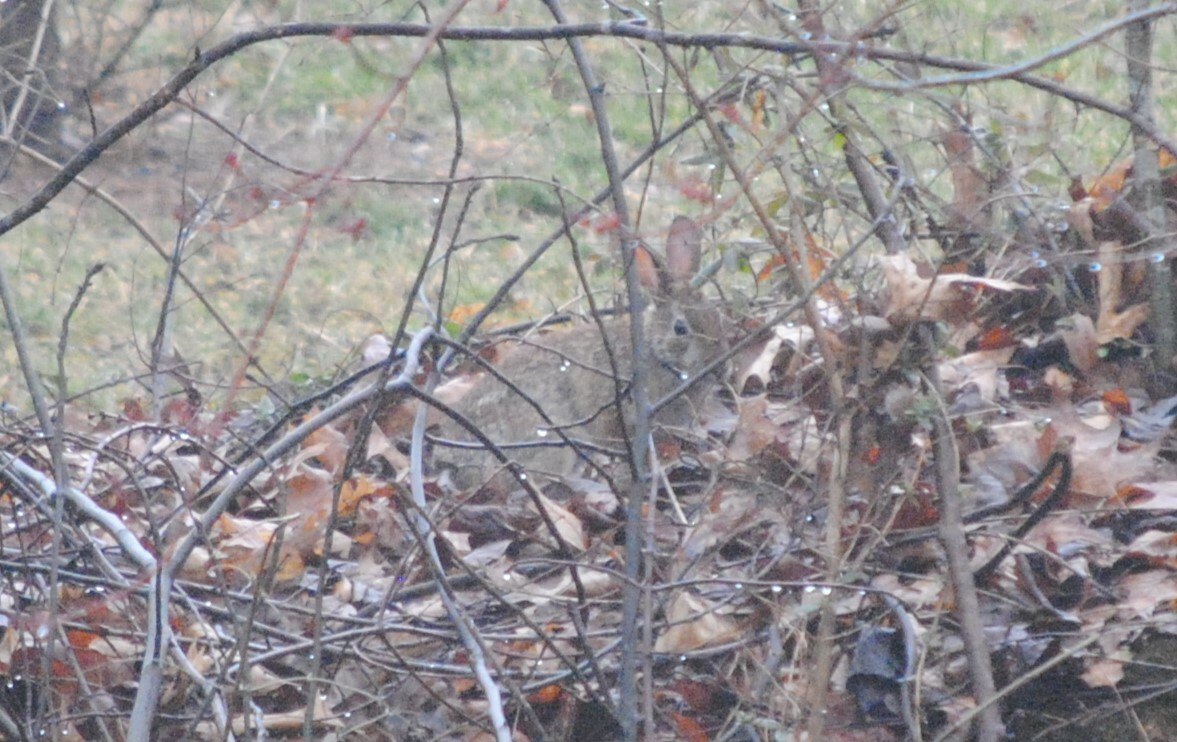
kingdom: Animalia
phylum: Chordata
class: Mammalia
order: Lagomorpha
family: Leporidae
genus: Sylvilagus
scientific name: Sylvilagus floridanus
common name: Eastern cottontail
